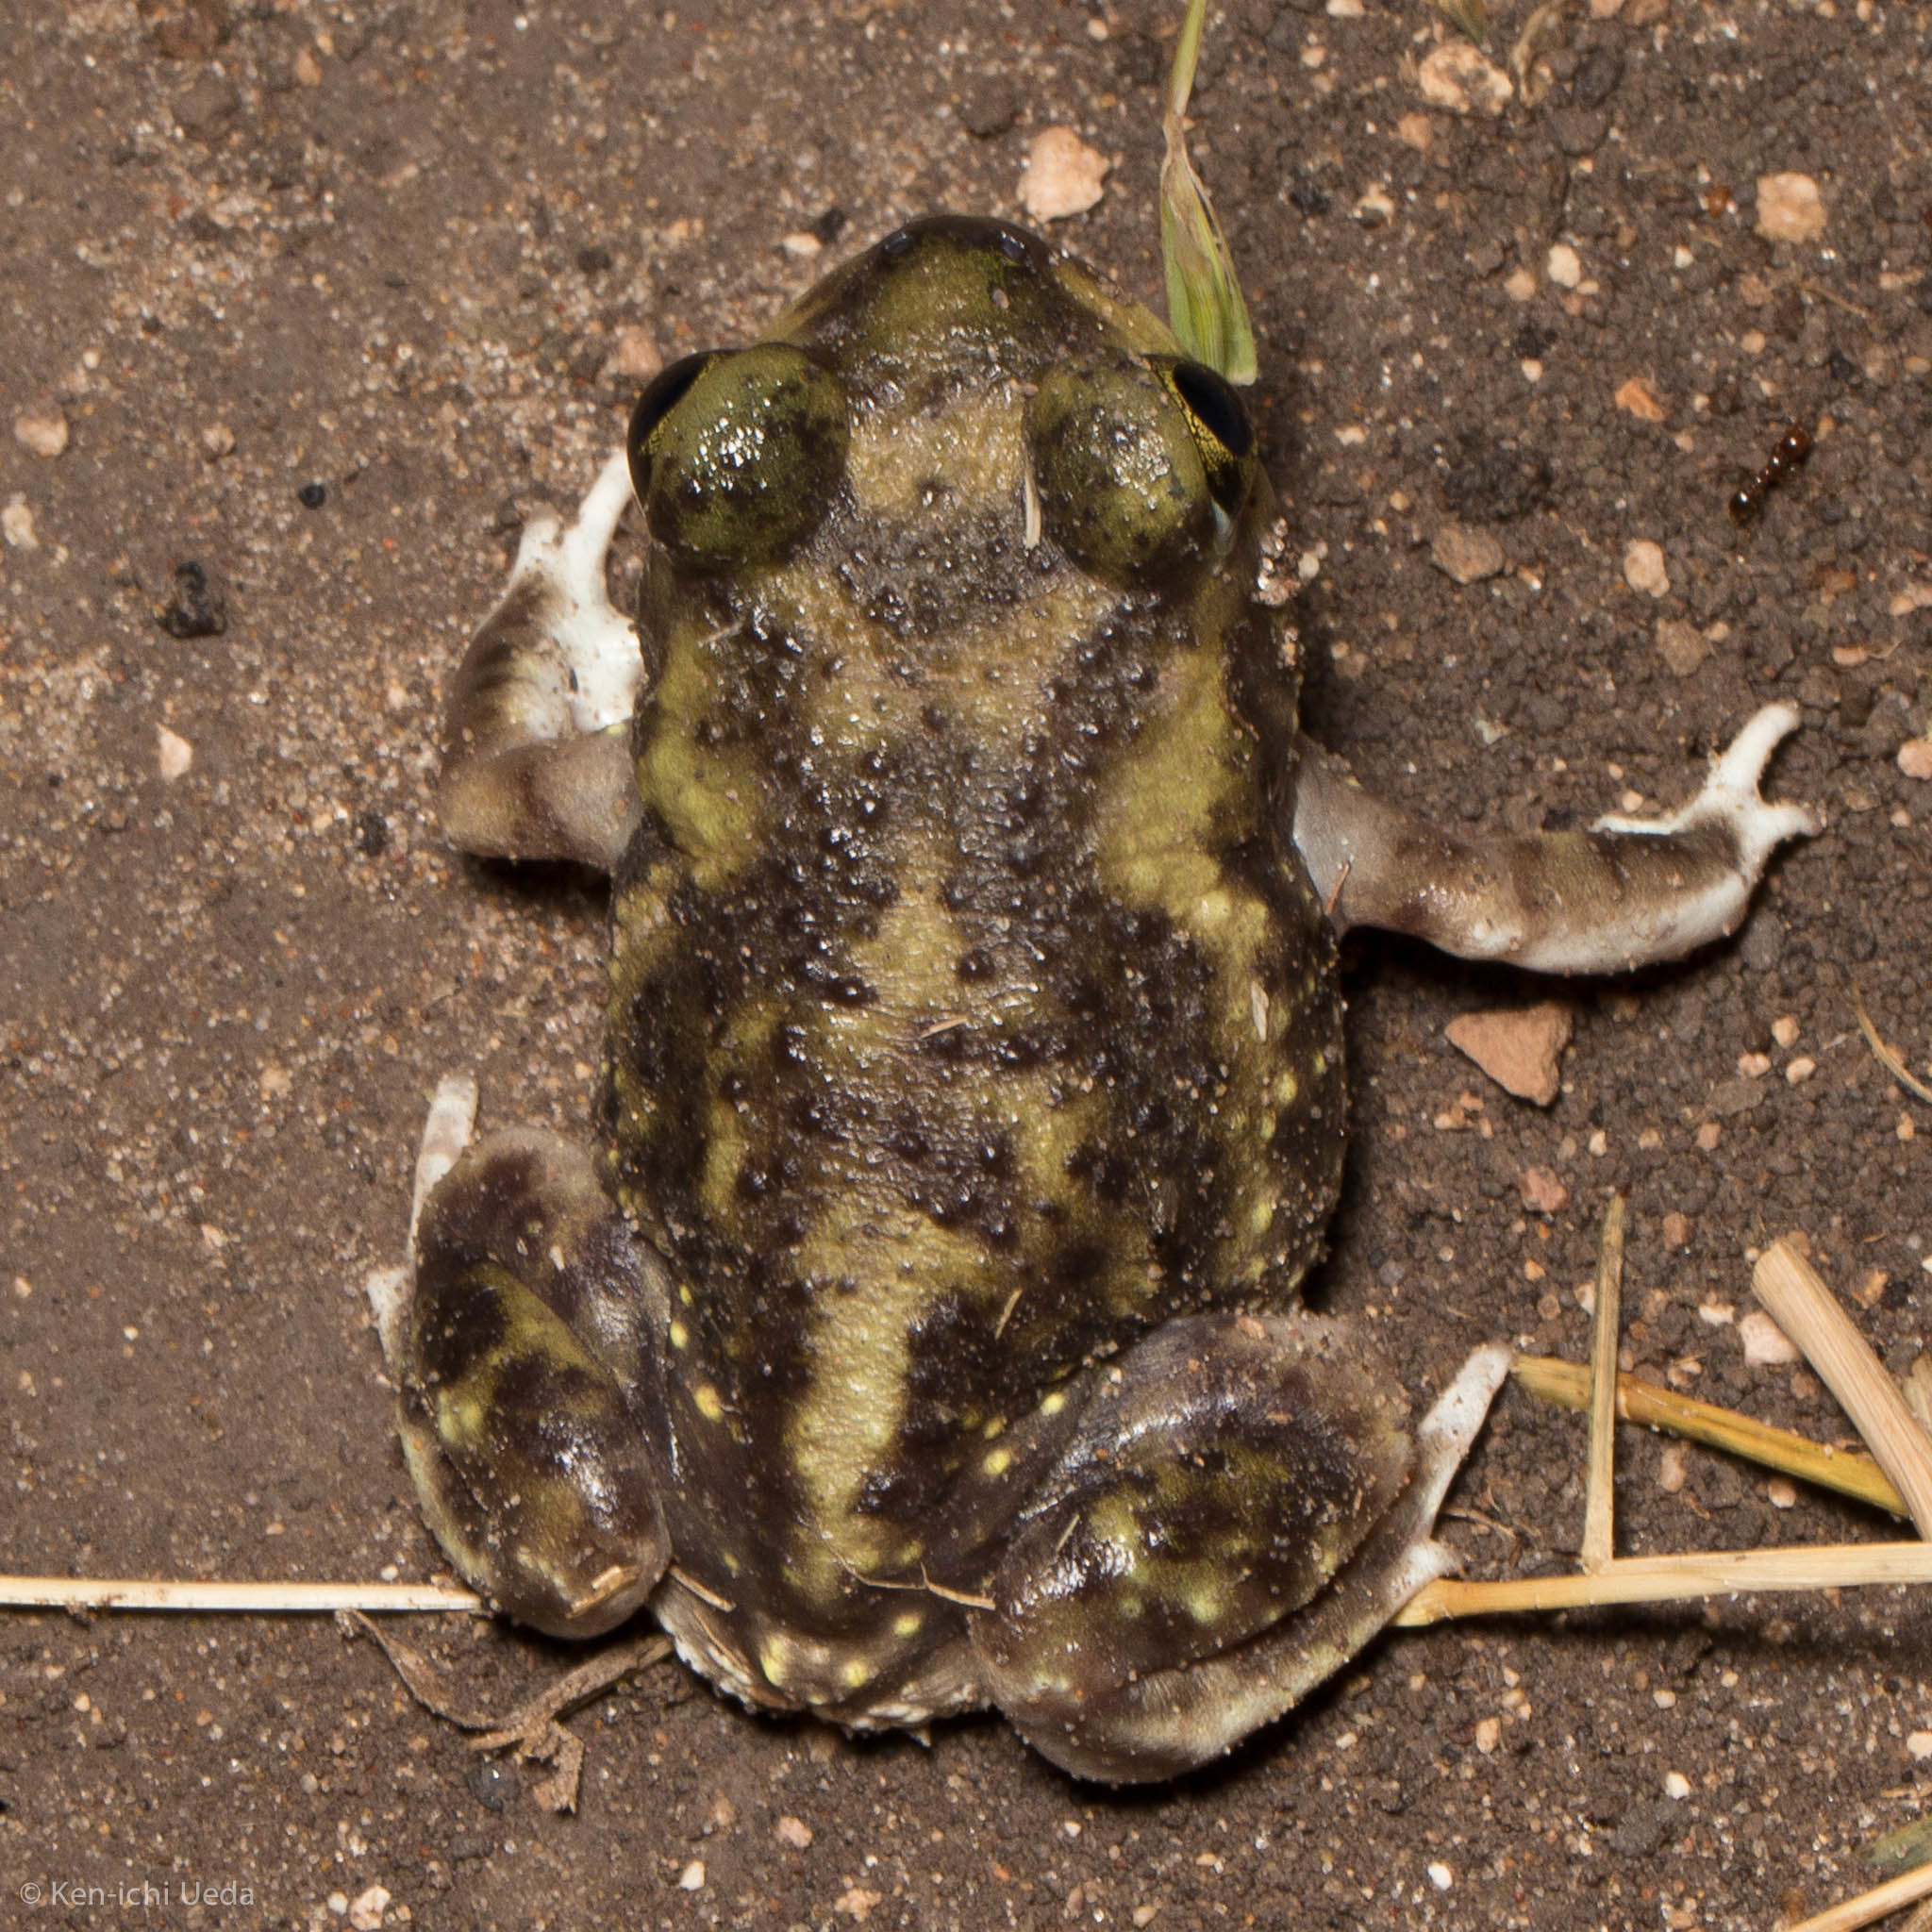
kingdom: Animalia
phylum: Chordata
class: Amphibia
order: Anura
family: Scaphiopodidae
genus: Scaphiopus
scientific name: Scaphiopus couchii
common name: Couch's spadefoot toad
